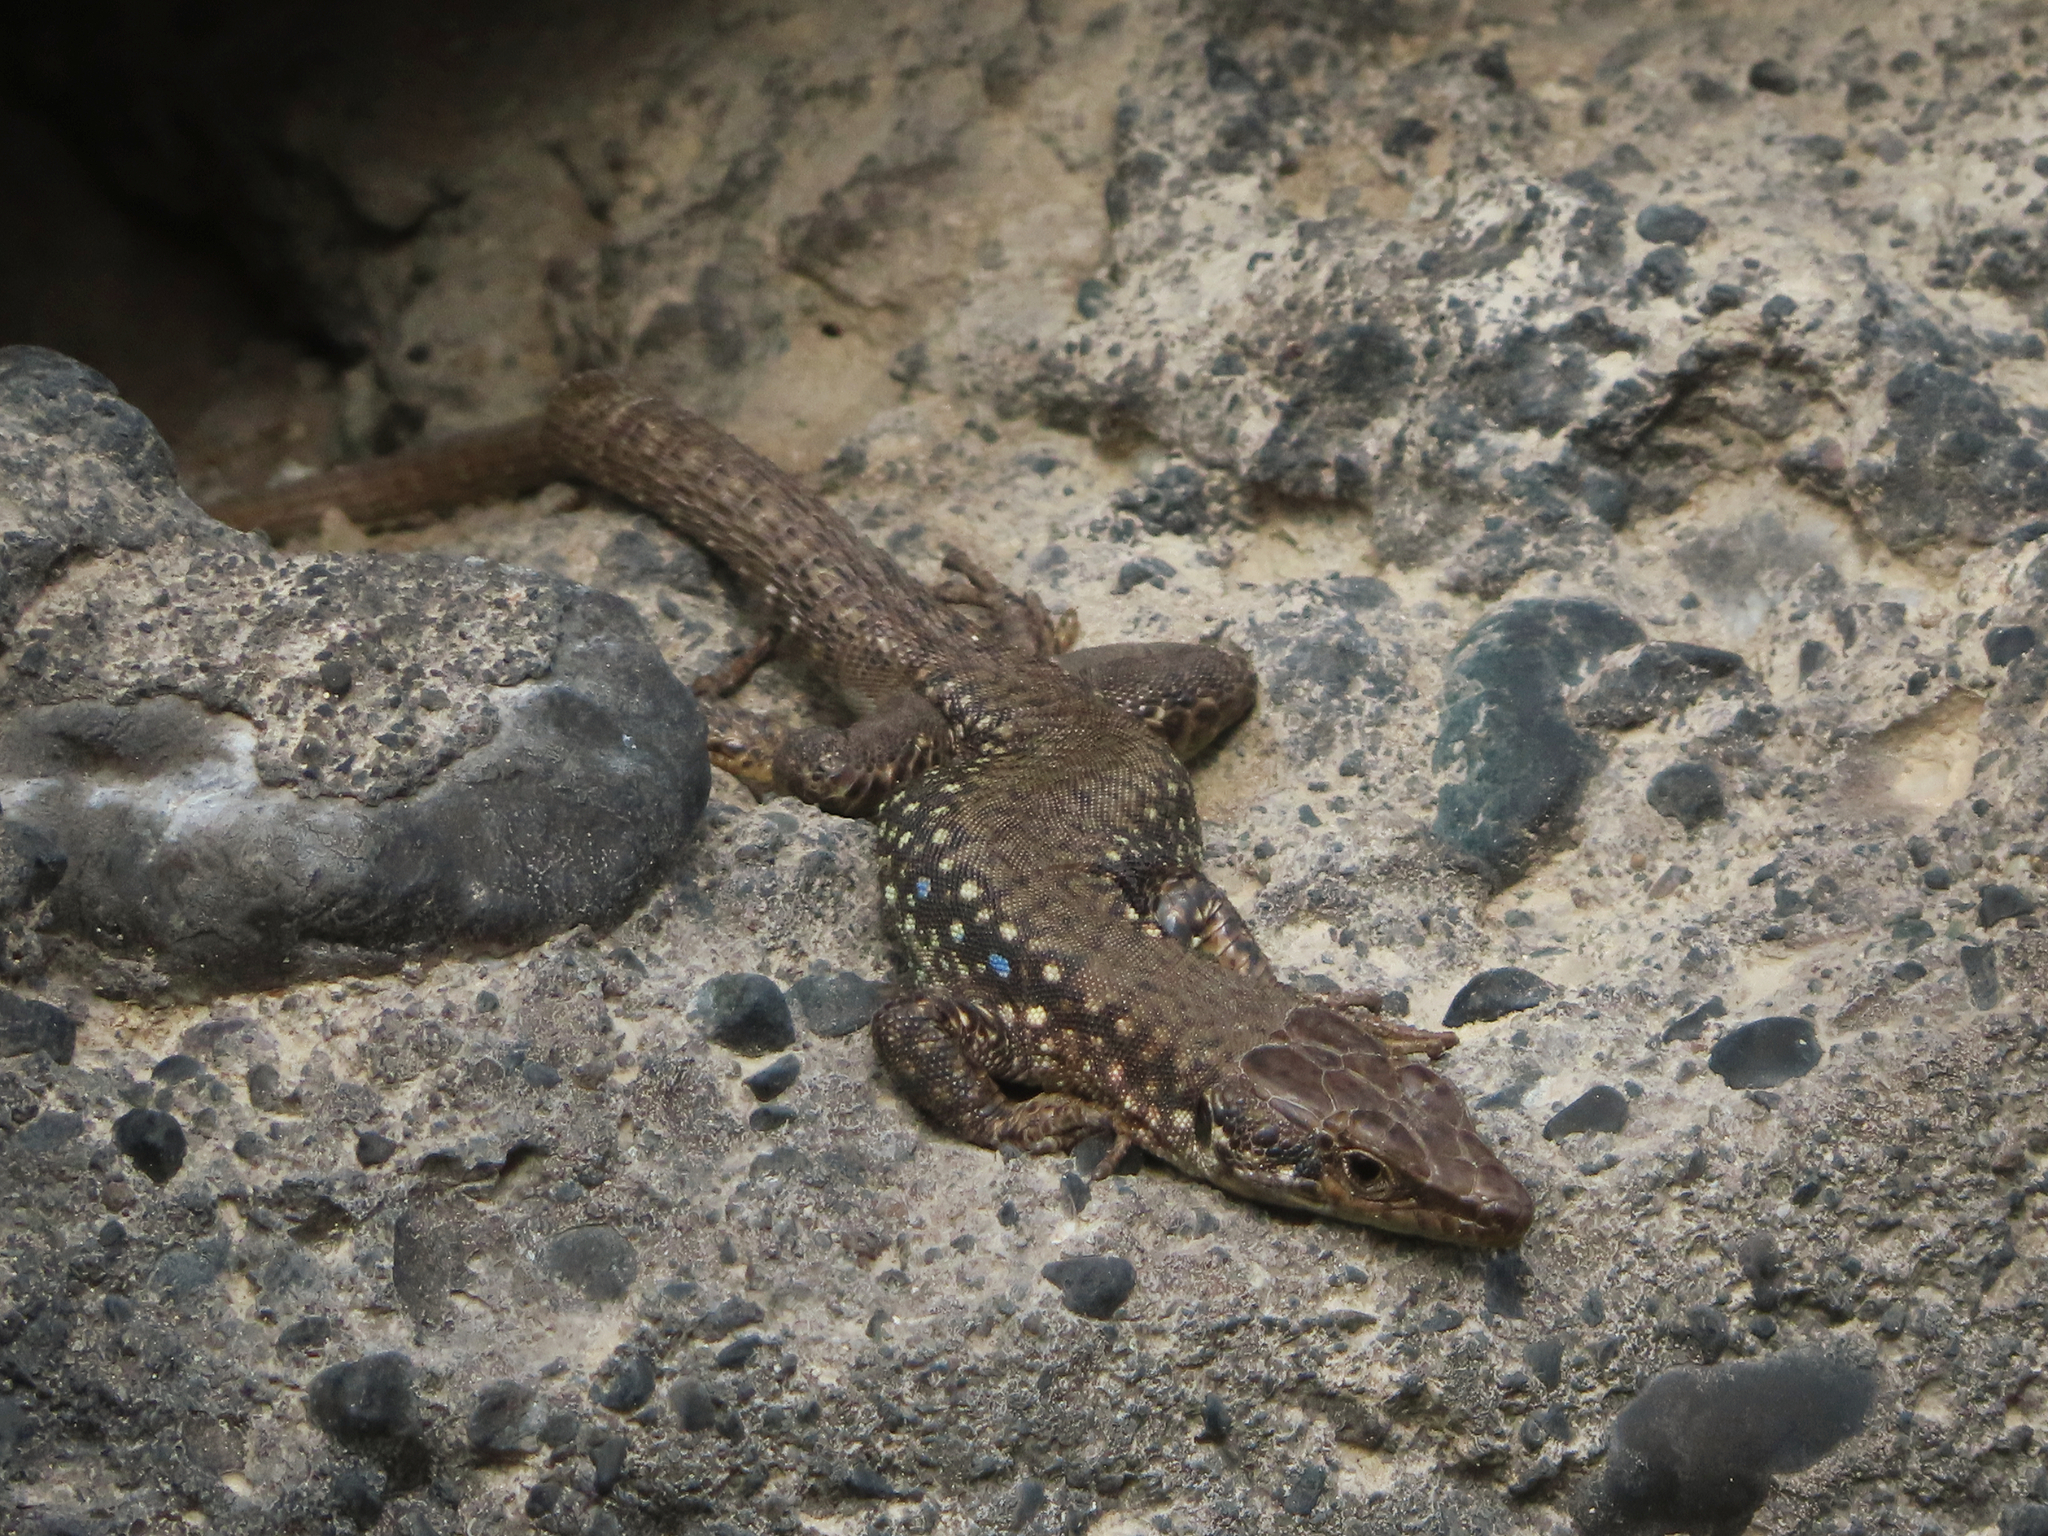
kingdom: Animalia
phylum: Chordata
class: Squamata
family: Lacertidae
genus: Darevskia
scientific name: Darevskia
